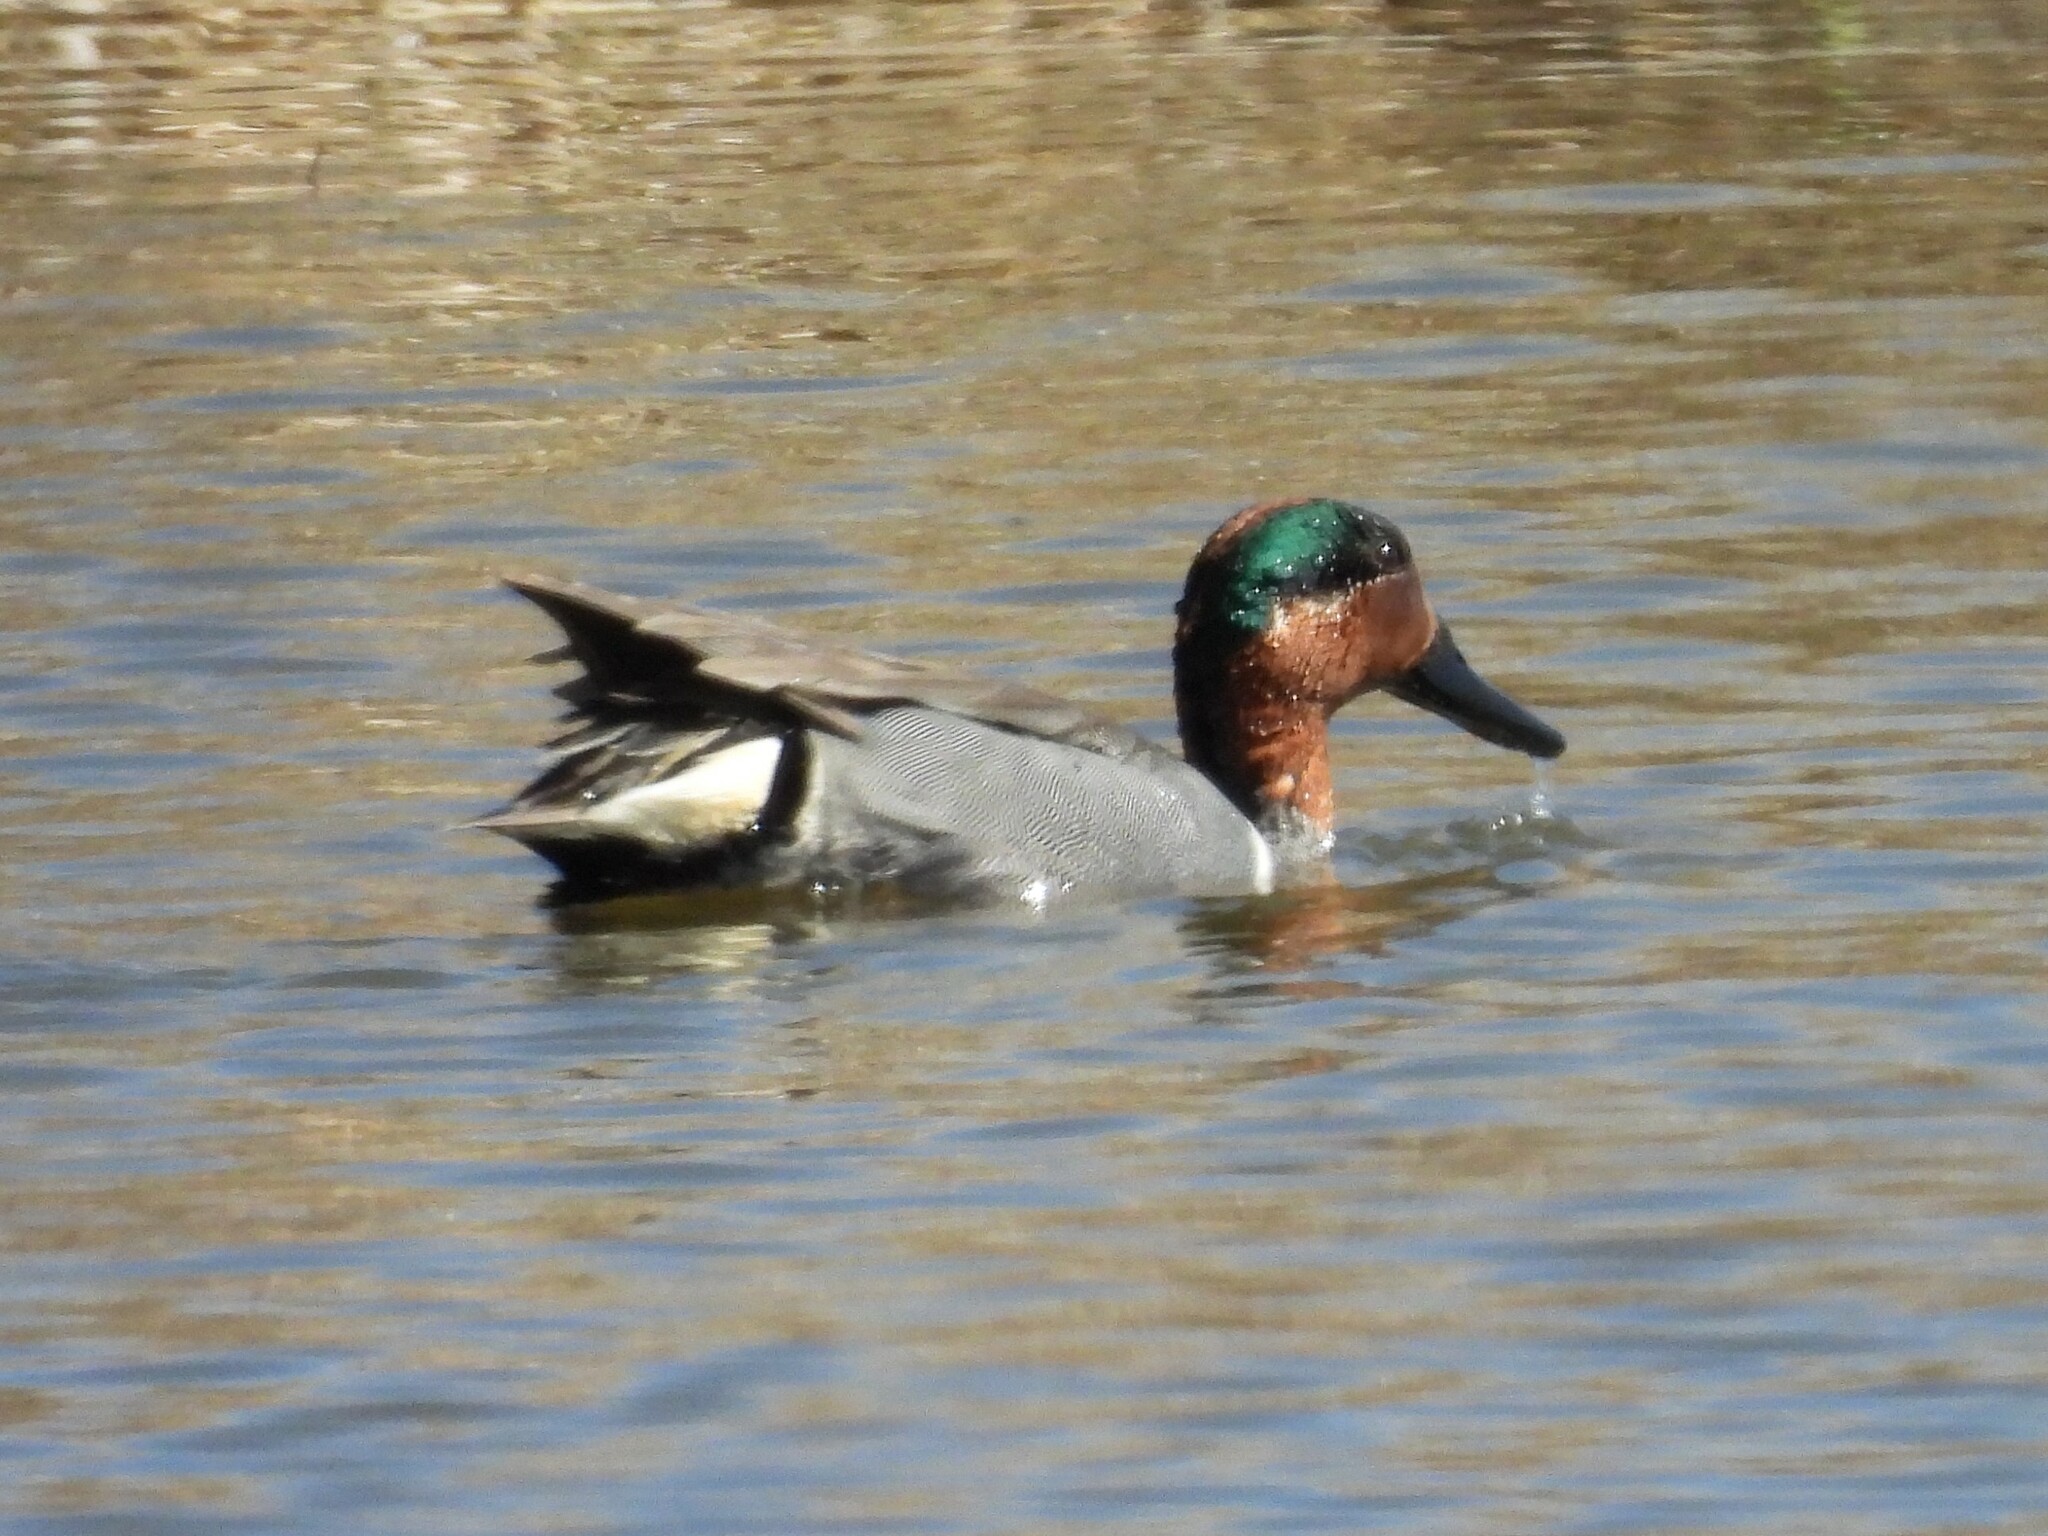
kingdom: Animalia
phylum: Chordata
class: Aves
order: Anseriformes
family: Anatidae
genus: Anas
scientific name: Anas crecca
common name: Eurasian teal
